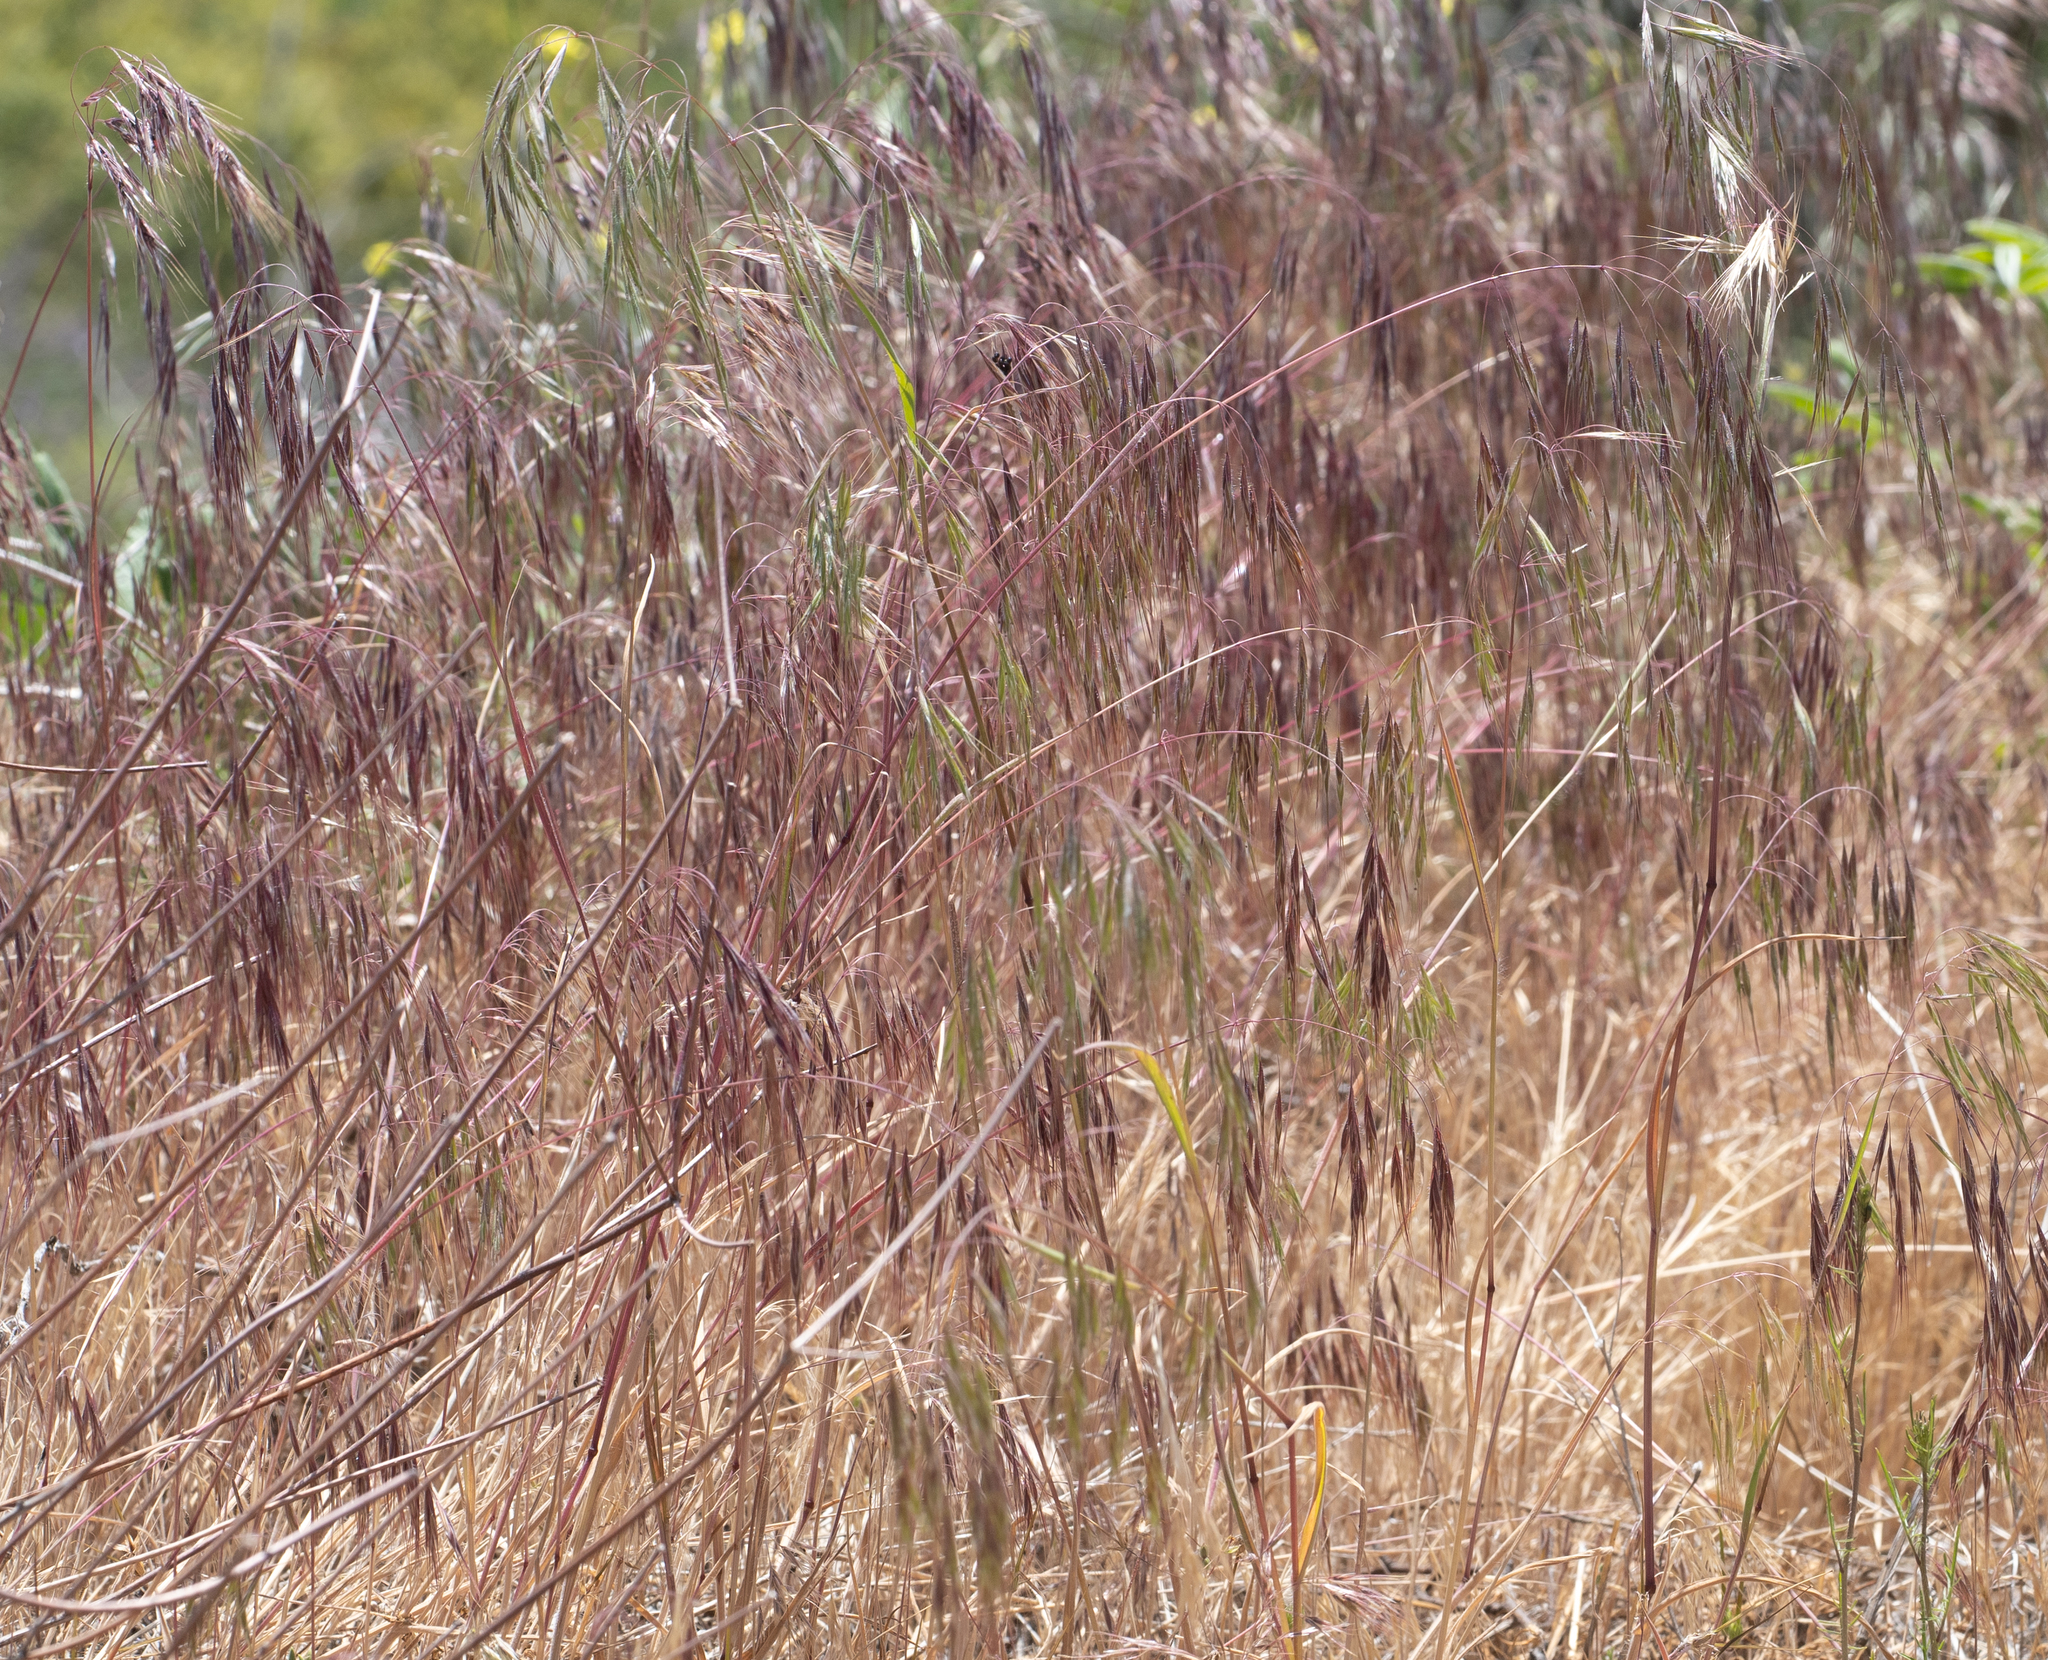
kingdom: Plantae
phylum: Tracheophyta
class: Liliopsida
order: Poales
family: Poaceae
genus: Bromus
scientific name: Bromus tectorum
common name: Cheatgrass
